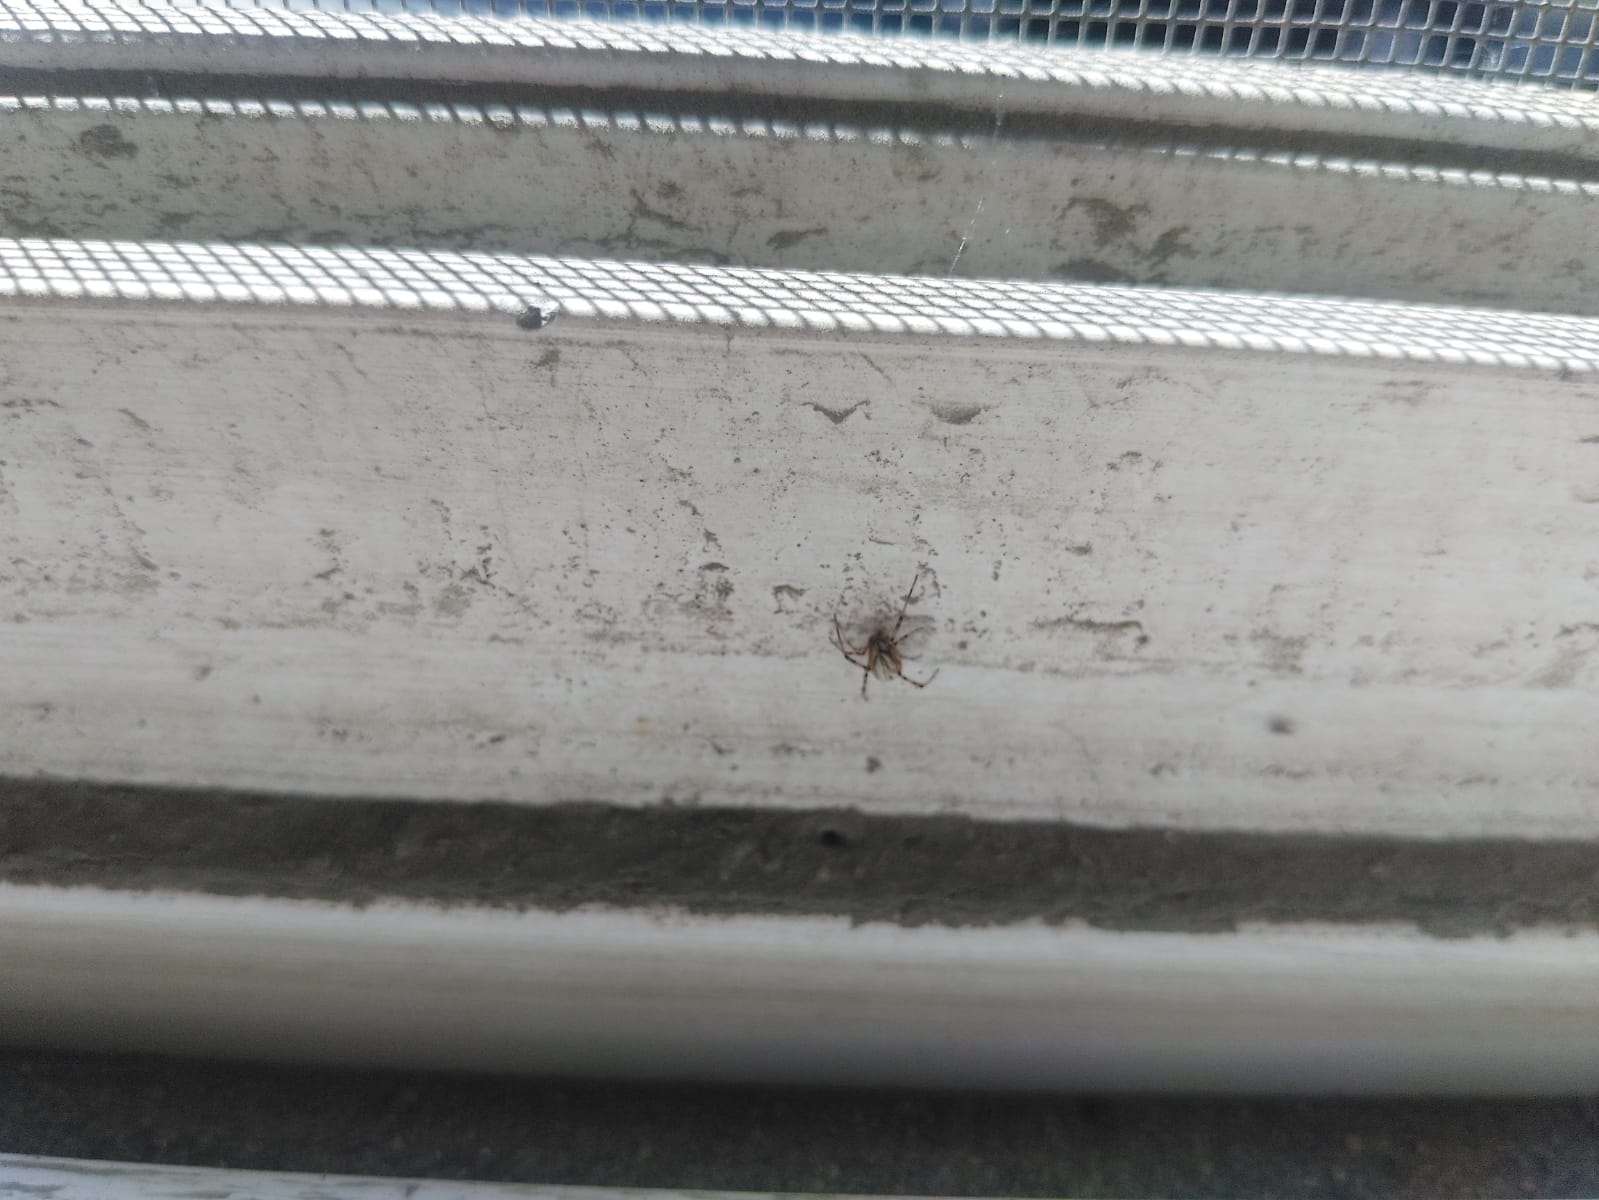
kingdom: Animalia
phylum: Arthropoda
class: Arachnida
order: Araneae
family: Theridiidae
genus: Latrodectus
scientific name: Latrodectus hesperus
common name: Western black widow
